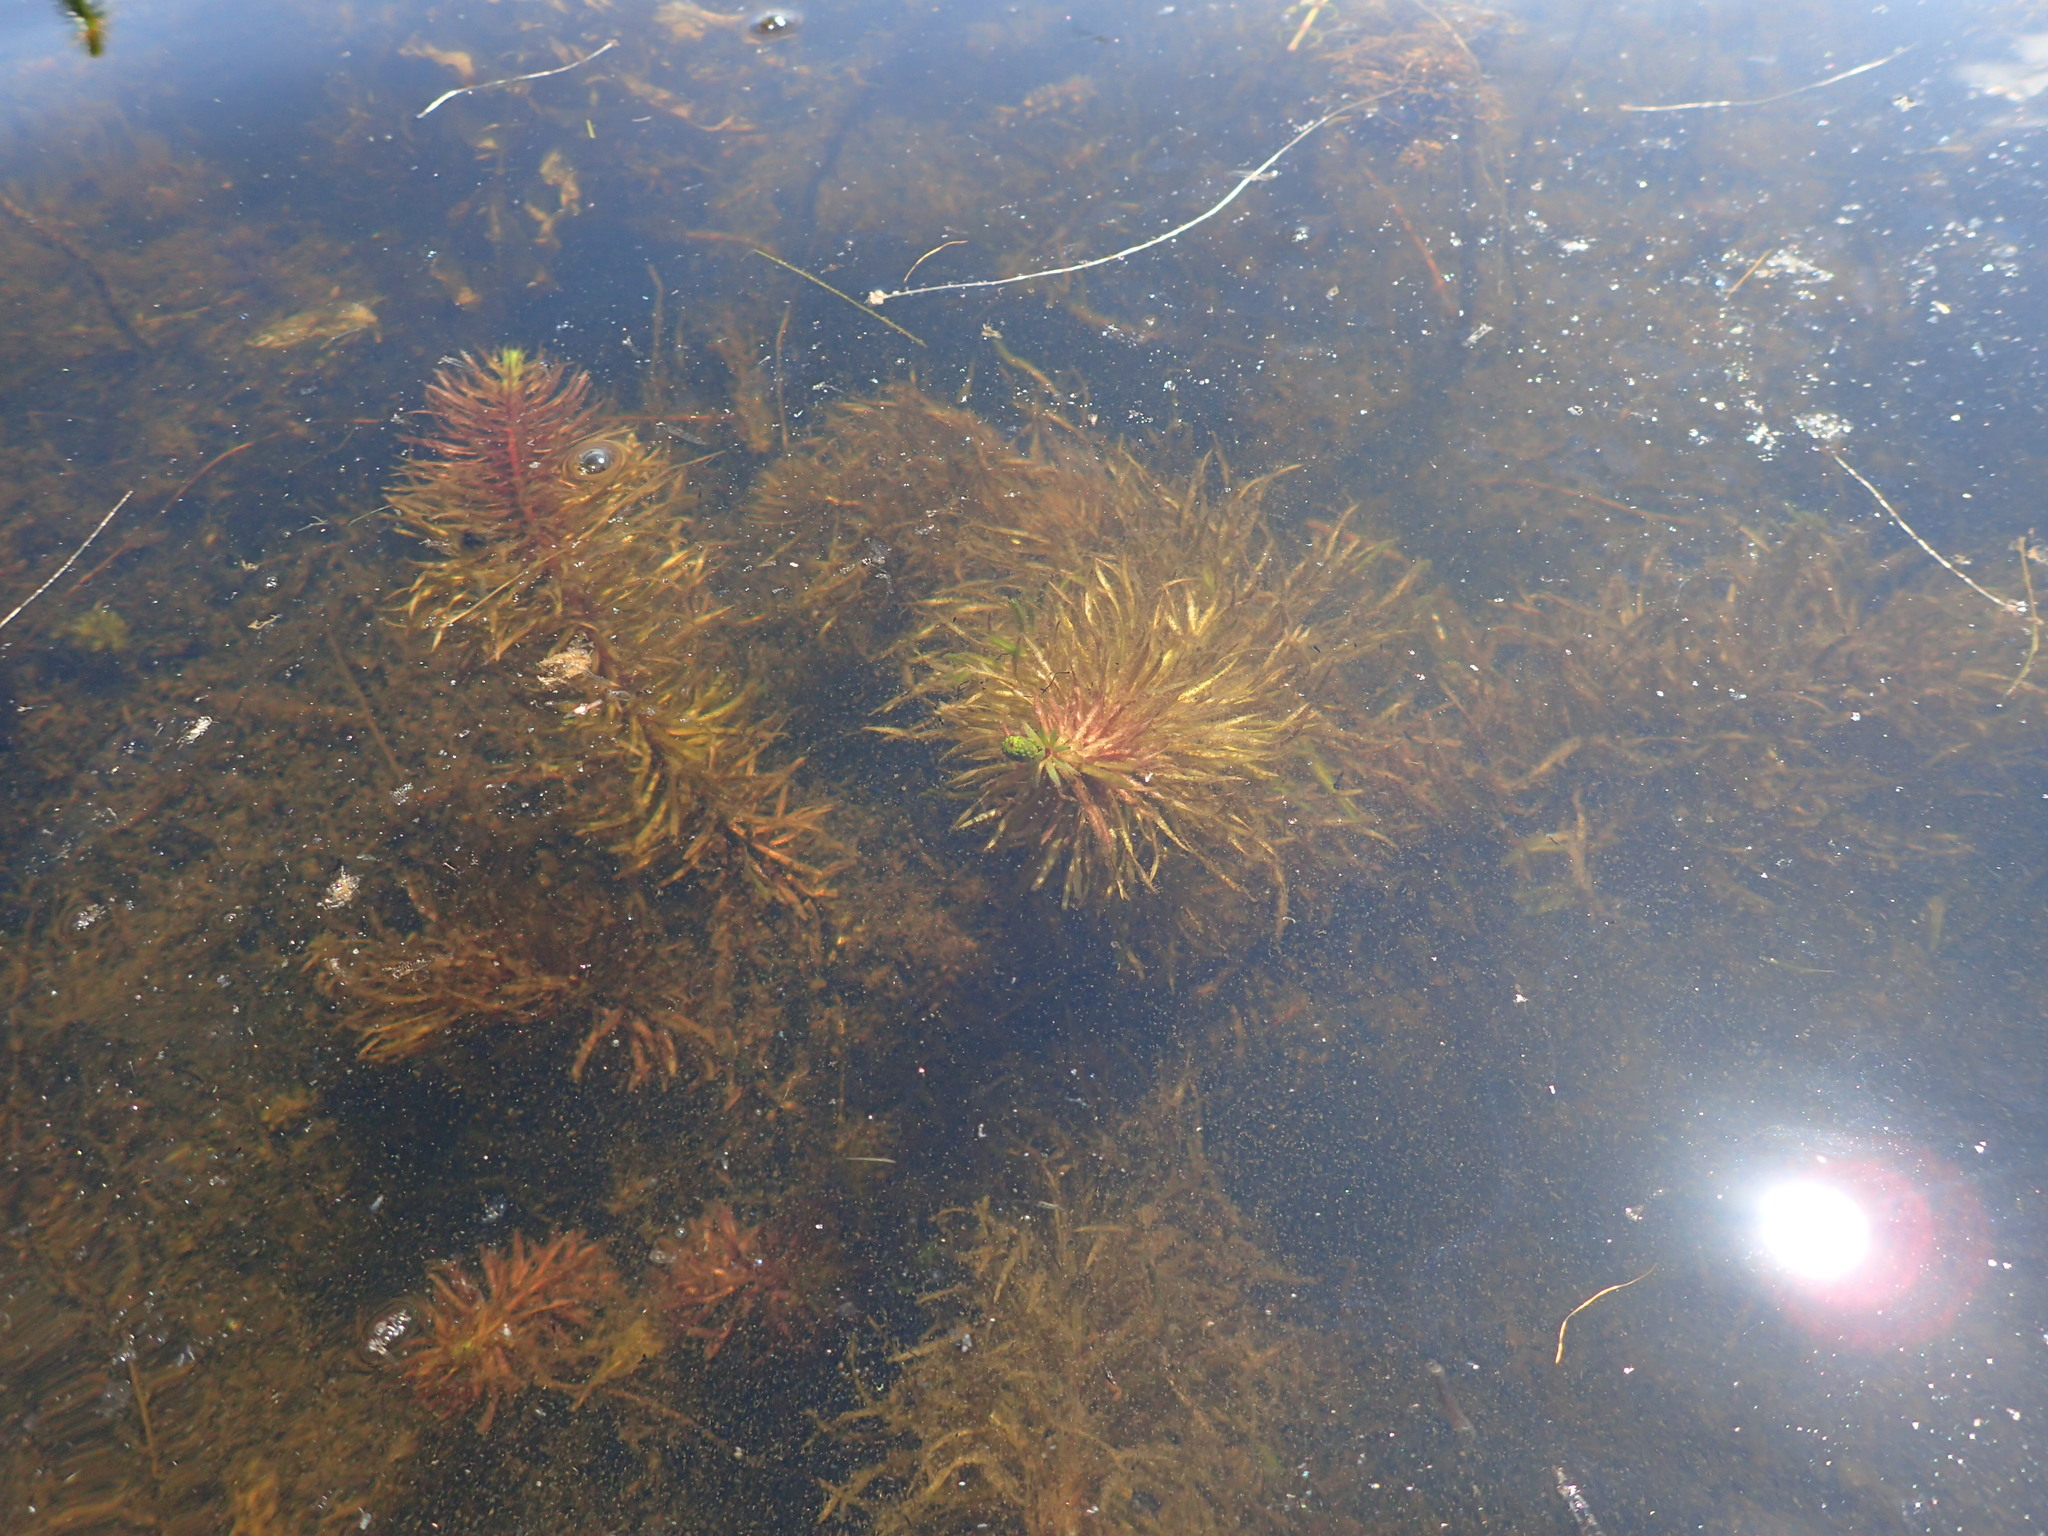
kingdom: Plantae
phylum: Tracheophyta
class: Magnoliopsida
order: Lamiales
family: Plantaginaceae
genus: Hippuris
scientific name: Hippuris vulgaris
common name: Mare's-tail
